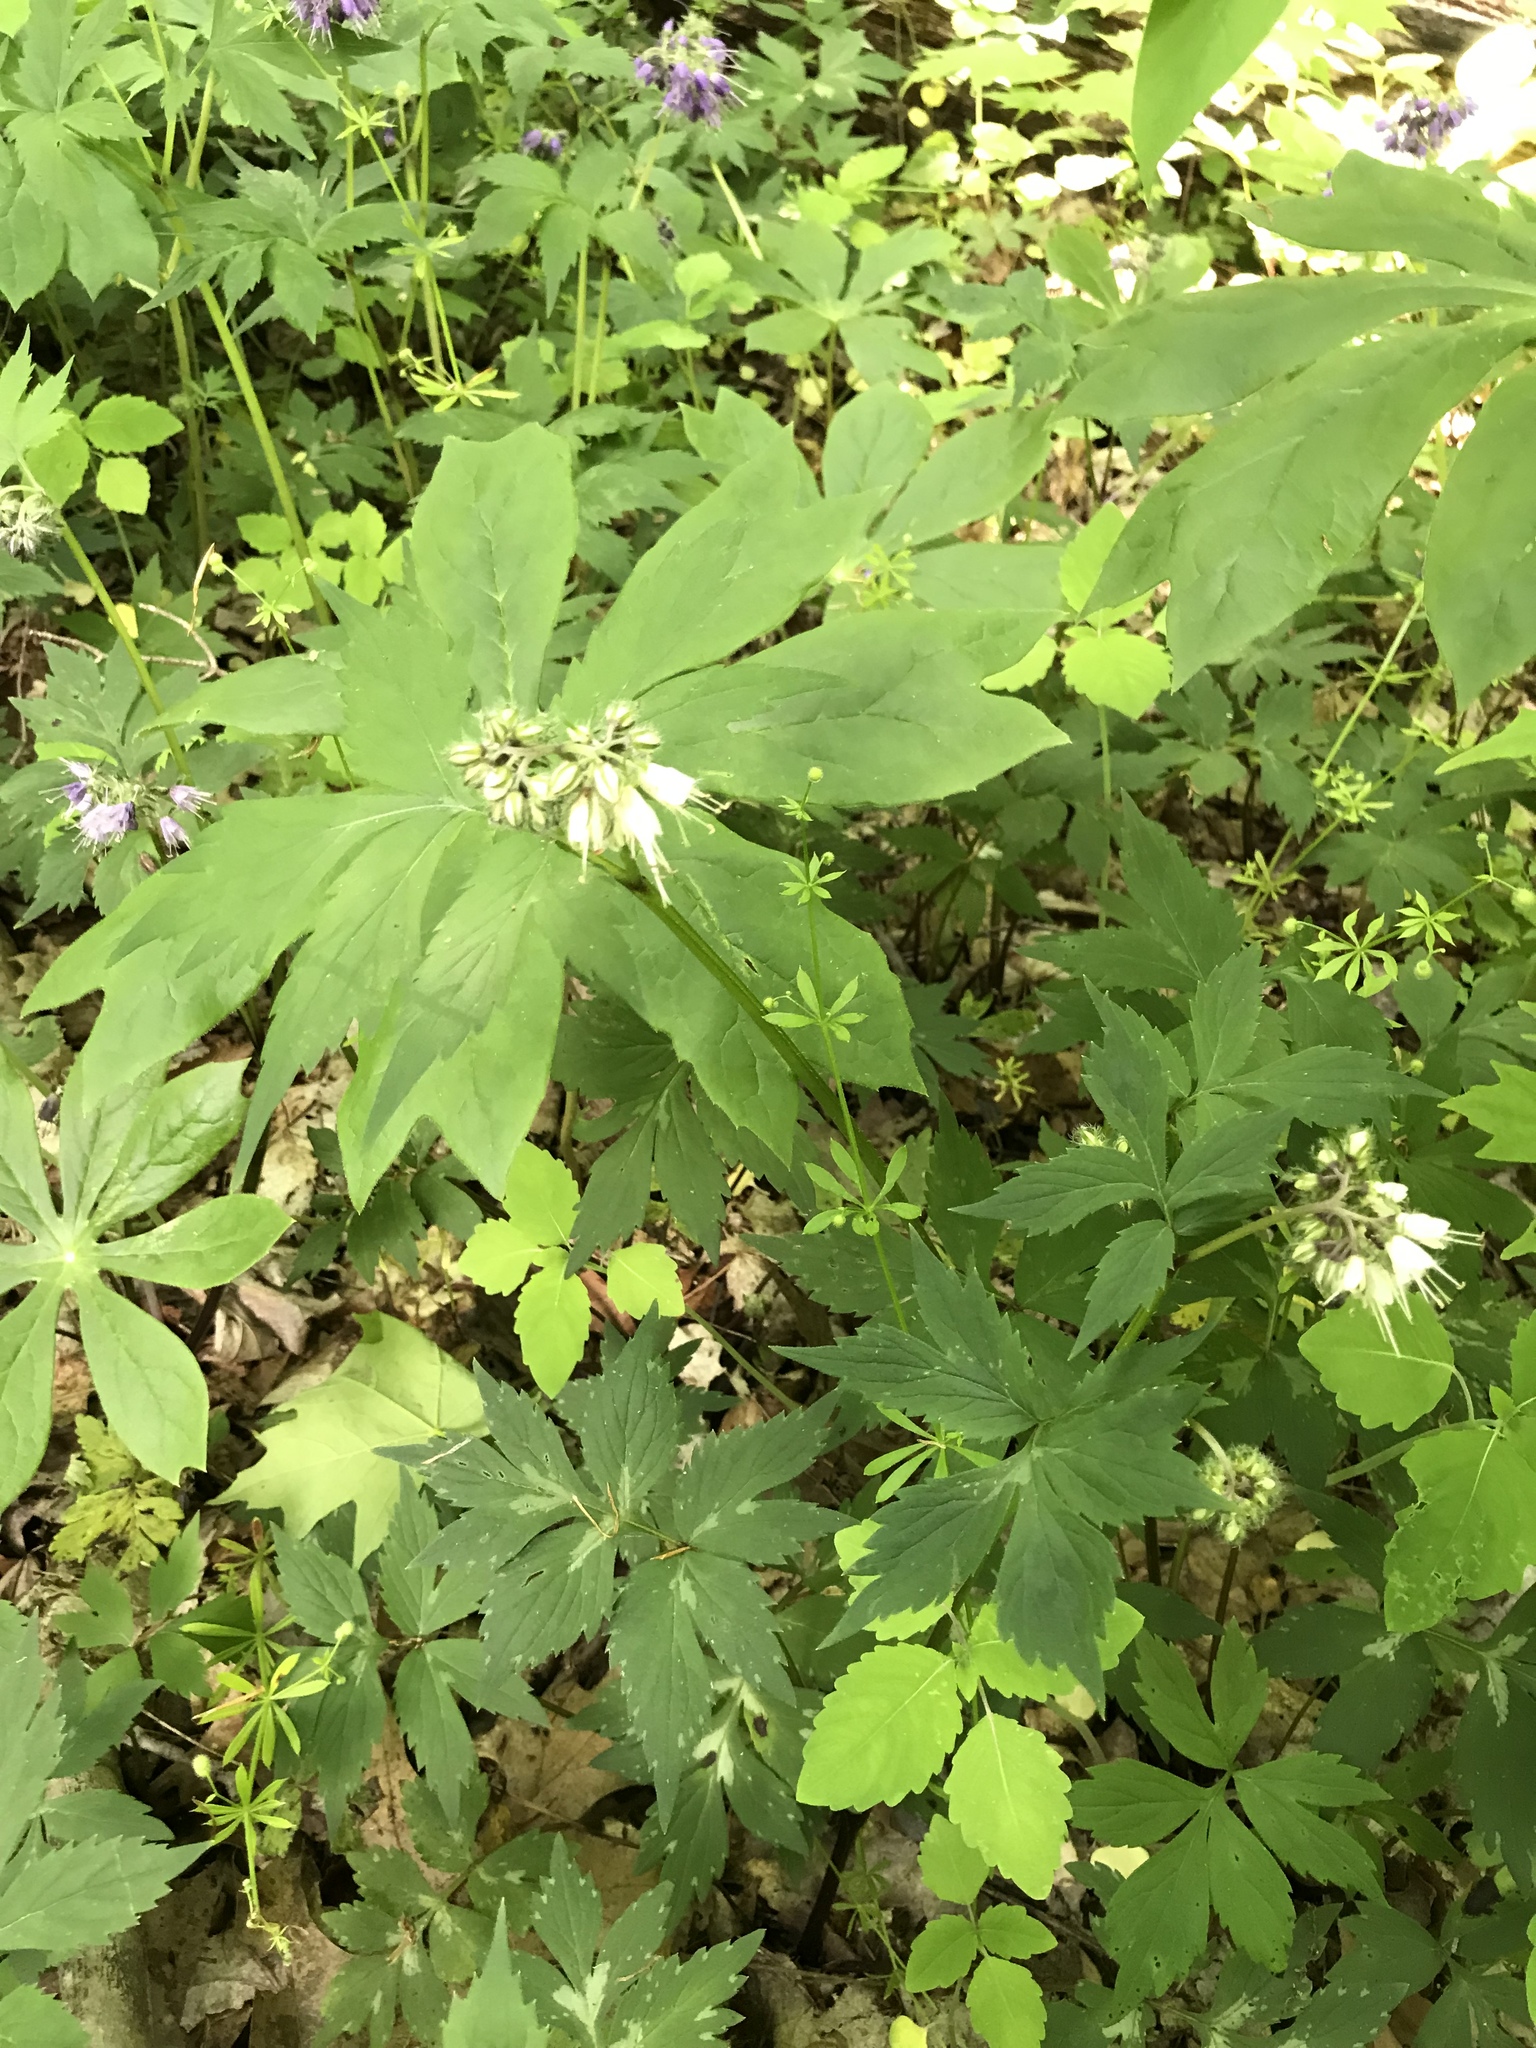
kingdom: Plantae
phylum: Tracheophyta
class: Magnoliopsida
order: Boraginales
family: Hydrophyllaceae
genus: Hydrophyllum
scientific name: Hydrophyllum virginianum
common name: Virginia waterleaf
